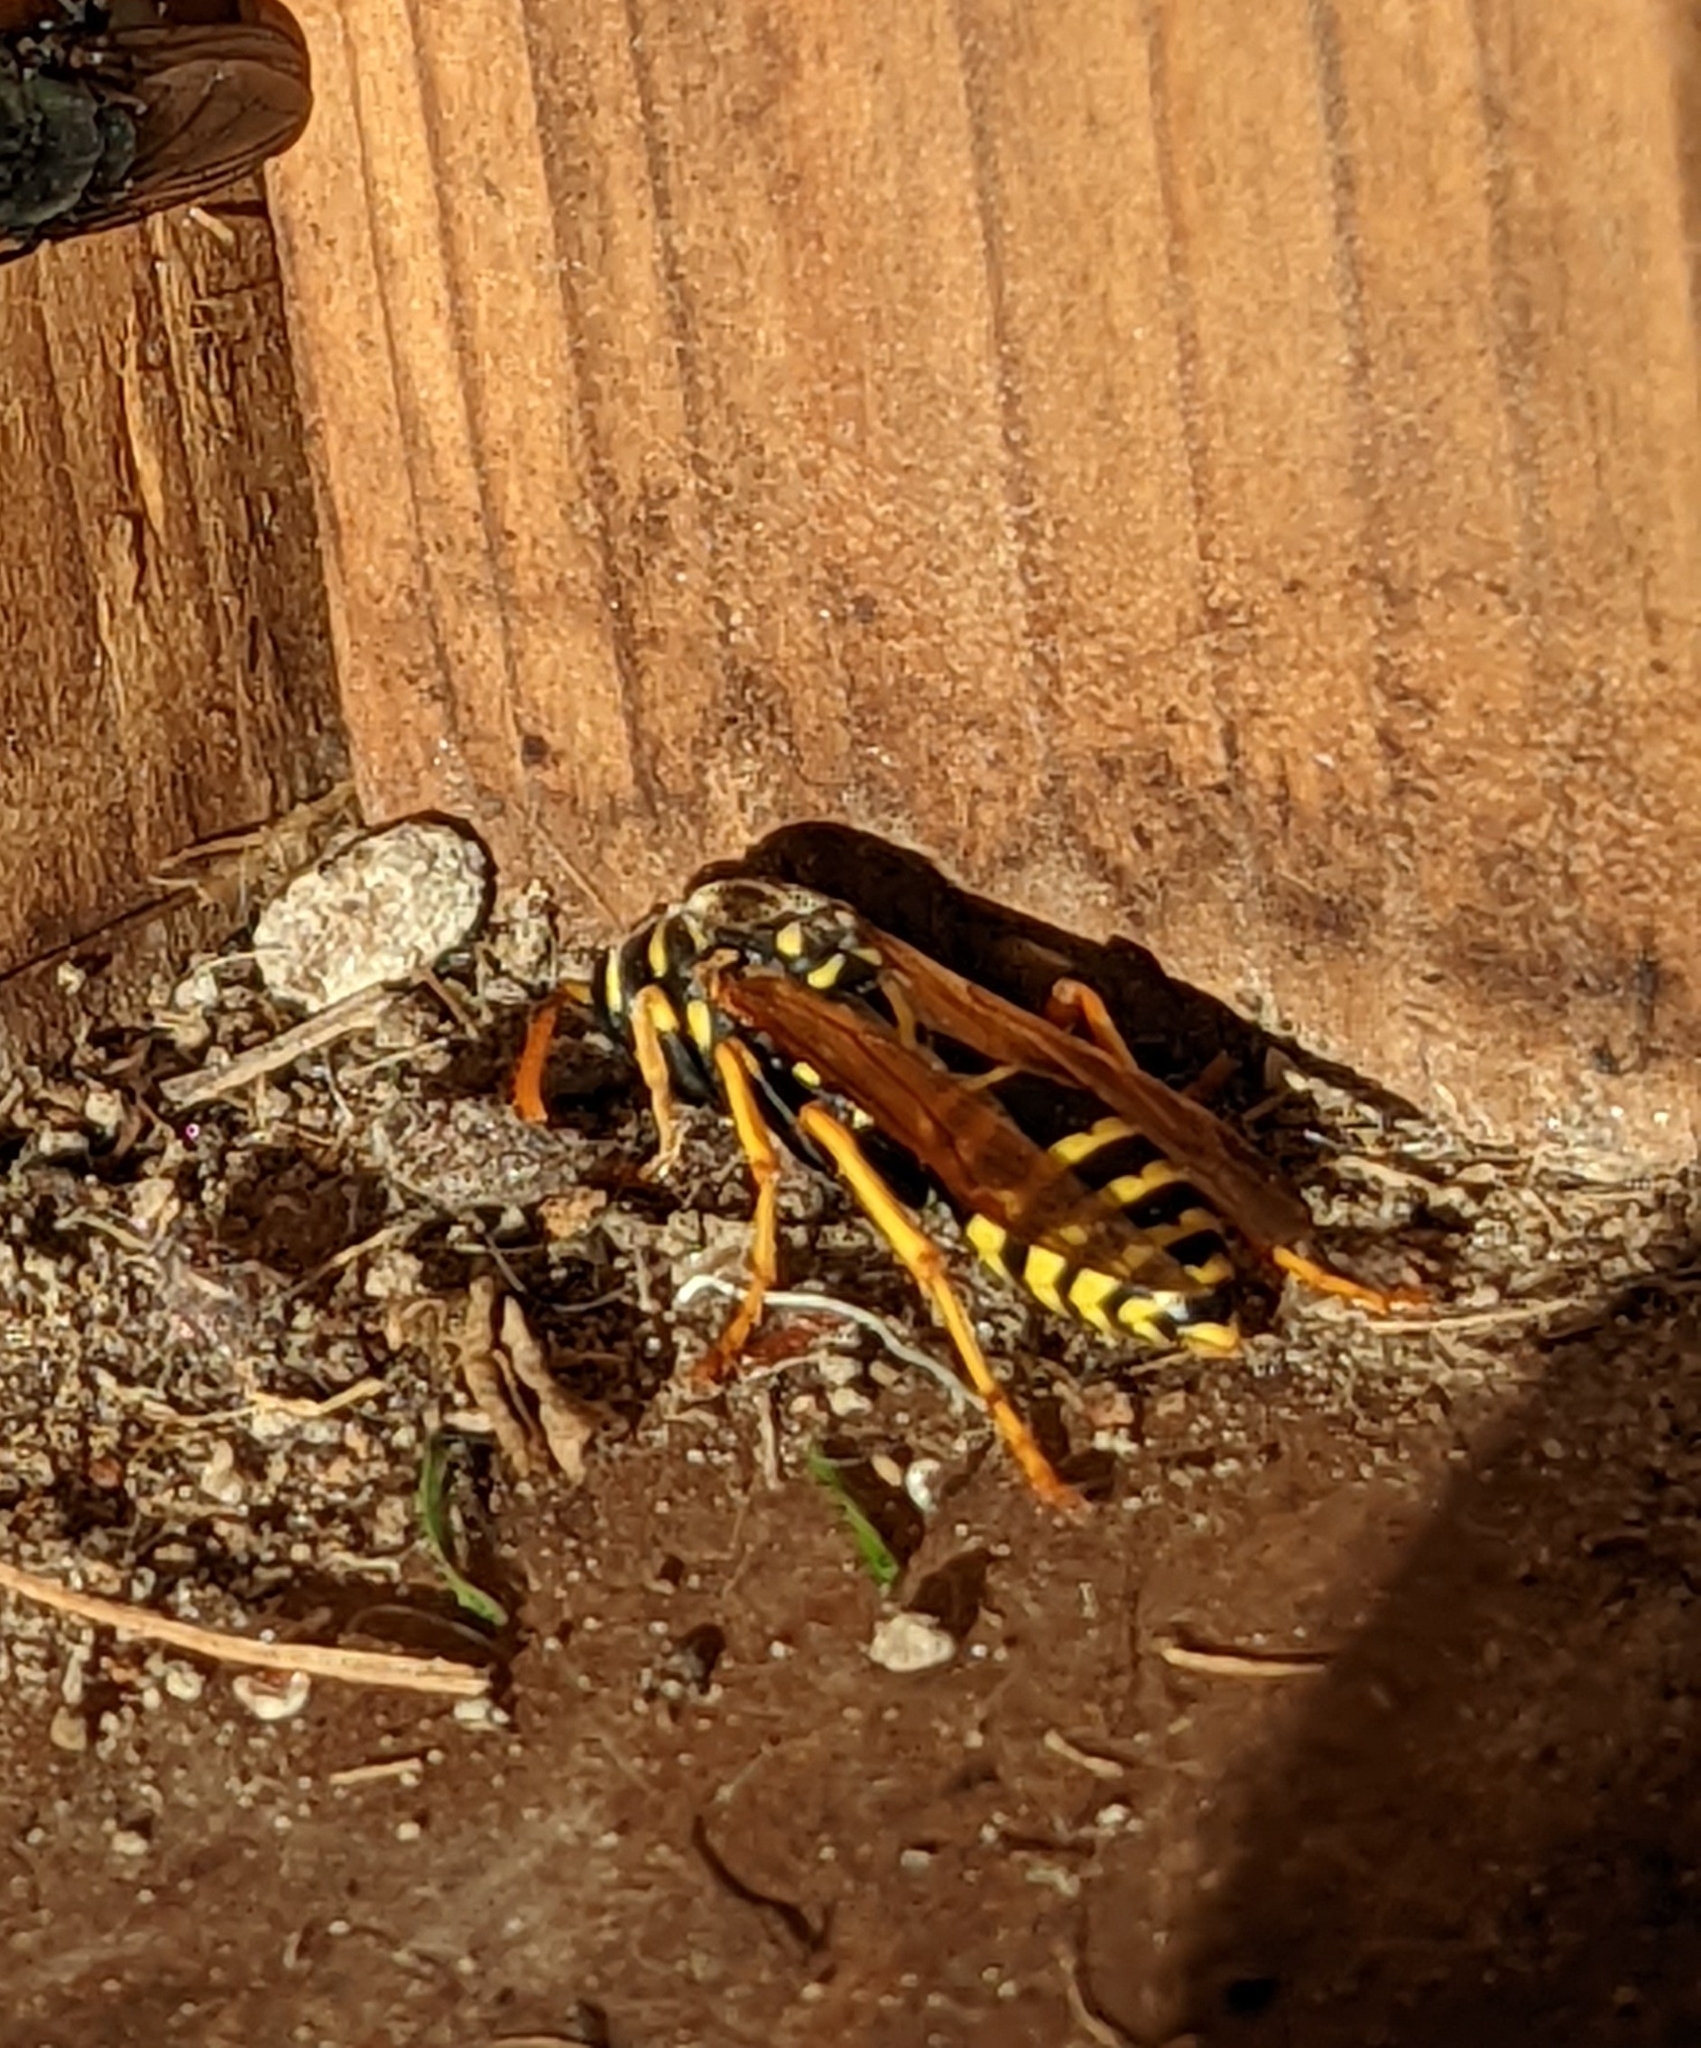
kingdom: Animalia
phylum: Arthropoda
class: Insecta
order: Hymenoptera
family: Eumenidae
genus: Polistes
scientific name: Polistes dominula
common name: Paper wasp
